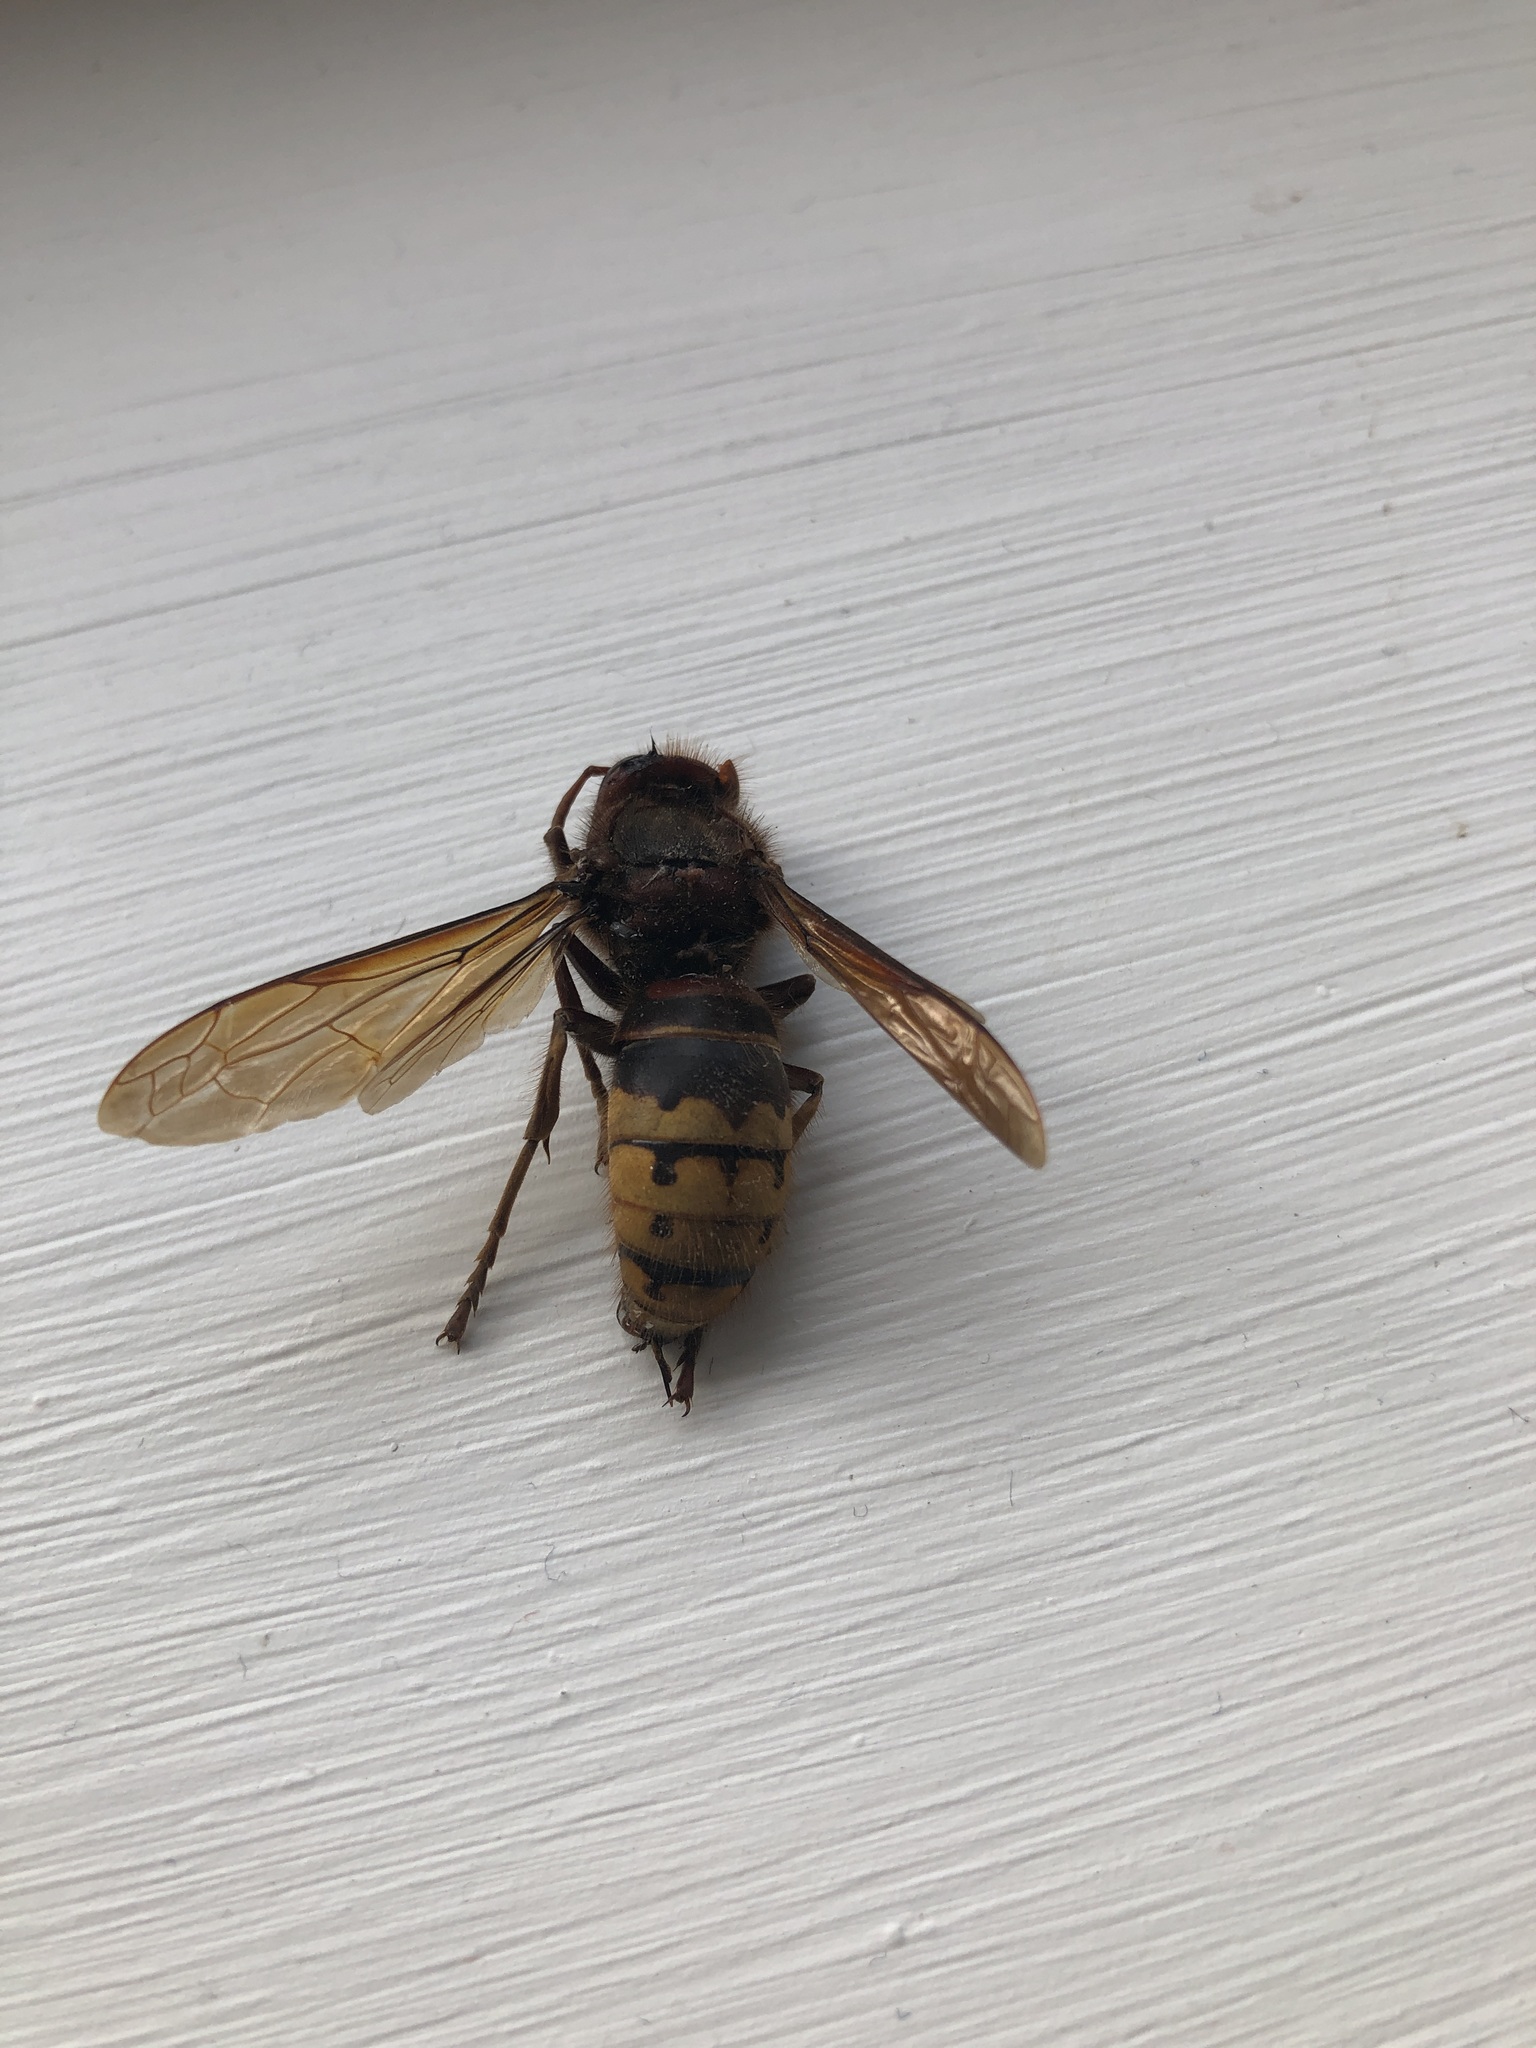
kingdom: Animalia
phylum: Arthropoda
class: Insecta
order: Hymenoptera
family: Vespidae
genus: Vespa
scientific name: Vespa crabro
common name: Hornet
